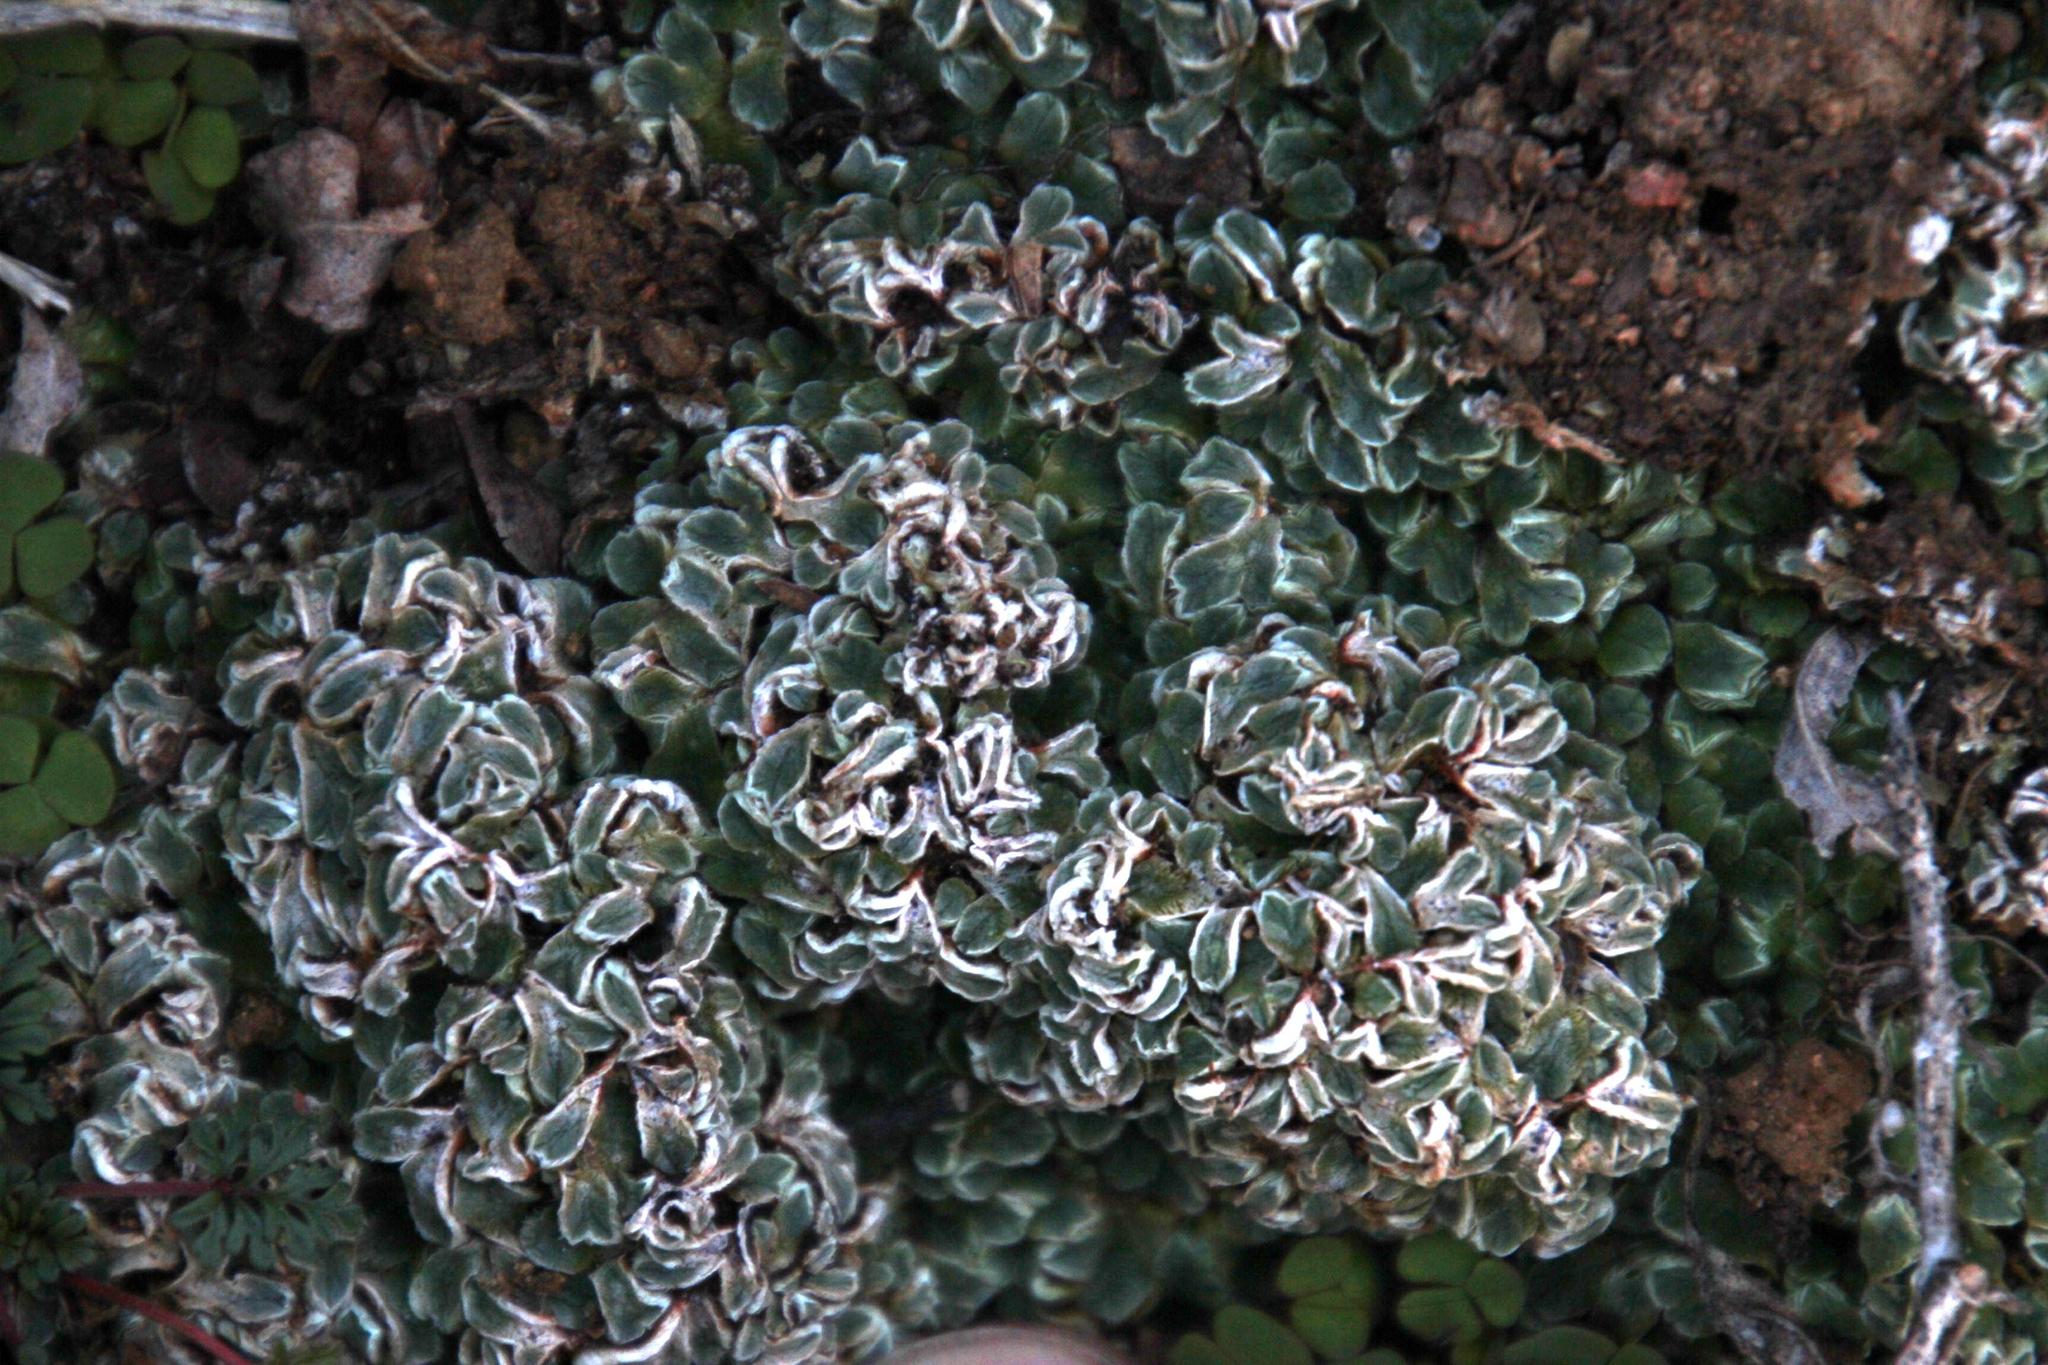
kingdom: Plantae
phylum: Marchantiophyta
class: Marchantiopsida
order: Marchantiales
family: Ricciaceae
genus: Riccia
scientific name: Riccia albovestita
